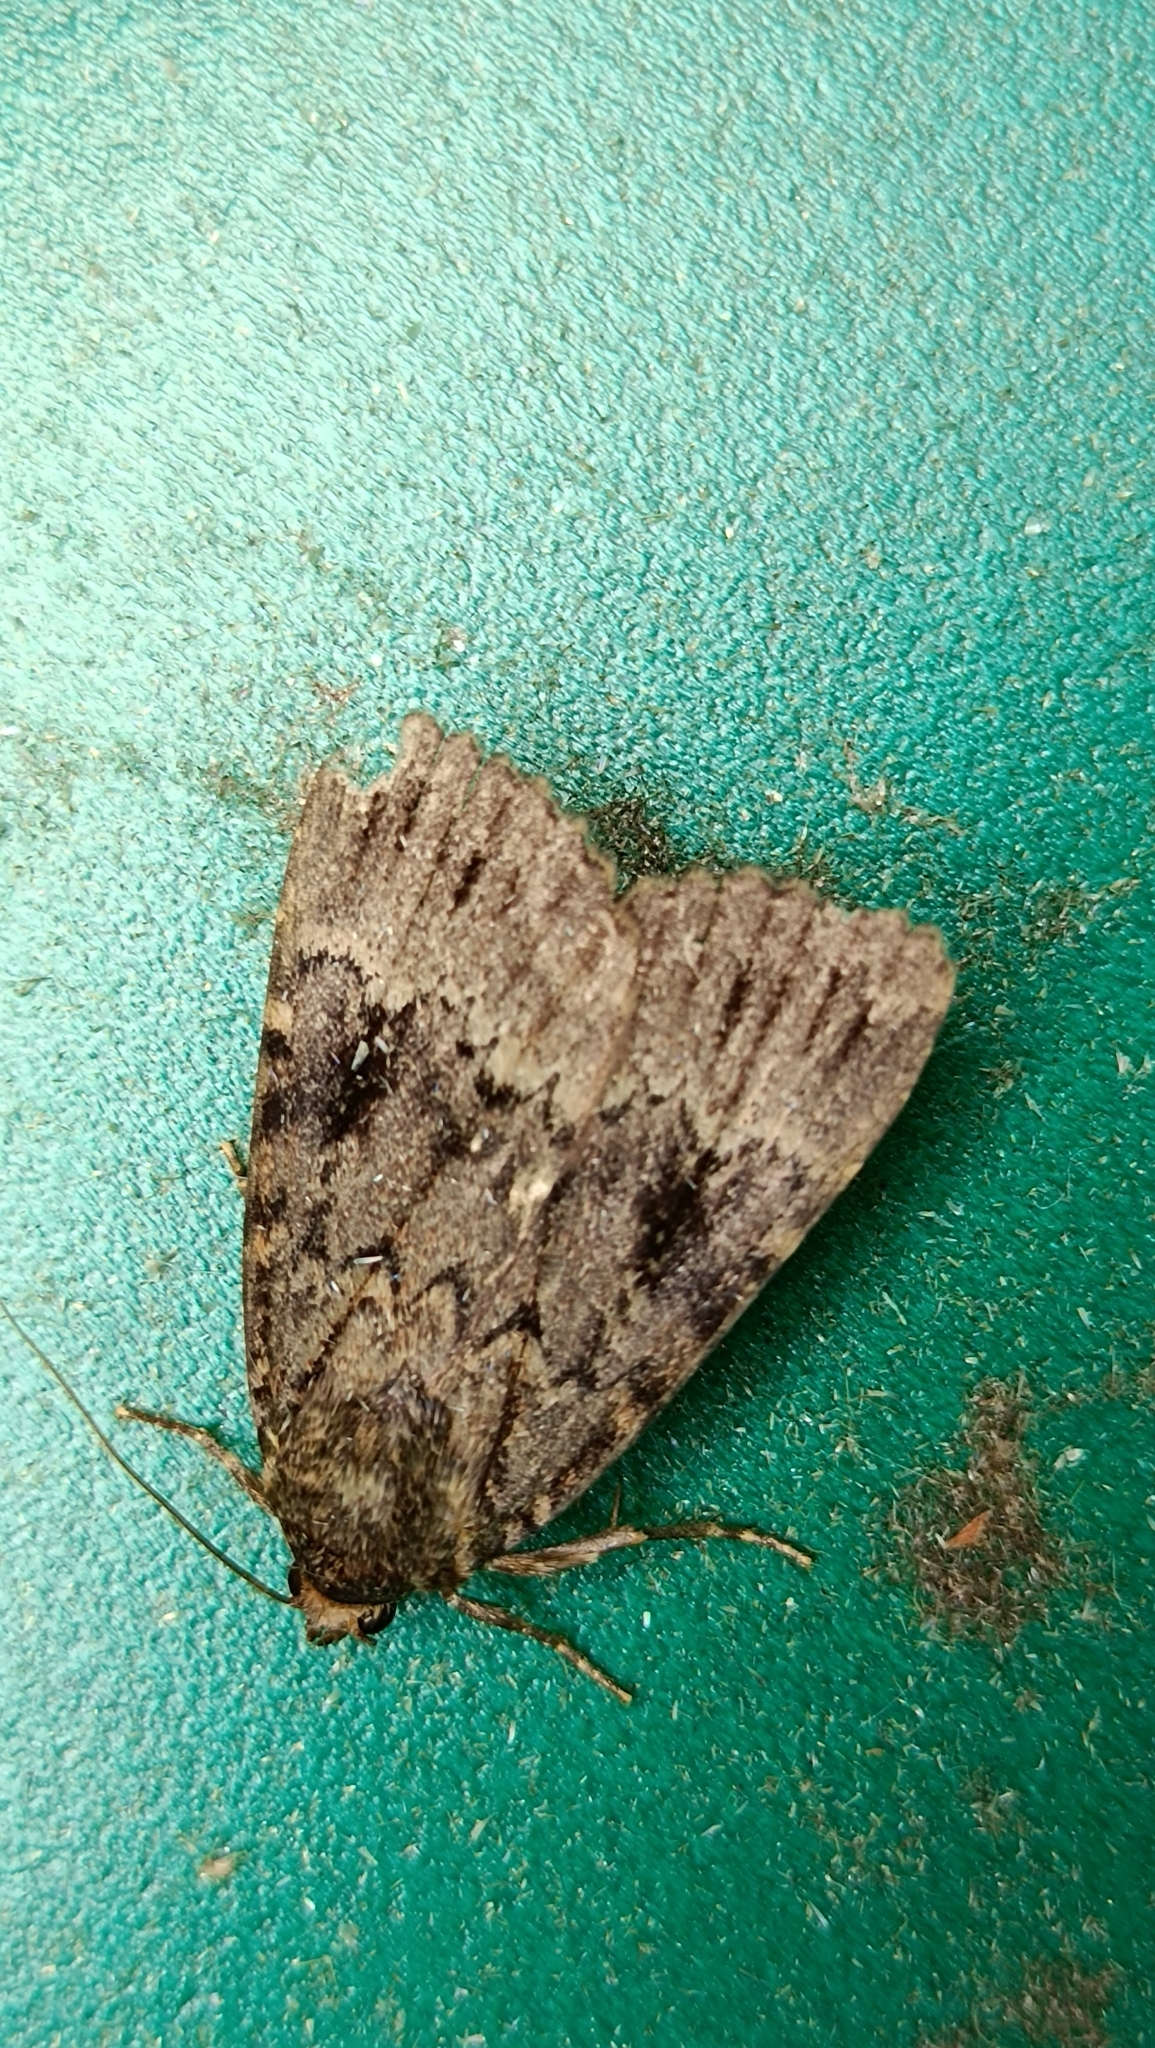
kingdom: Animalia
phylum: Arthropoda
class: Insecta
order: Lepidoptera
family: Noctuidae
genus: Amphipyra
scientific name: Amphipyra pyramidea
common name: Copper underwing
